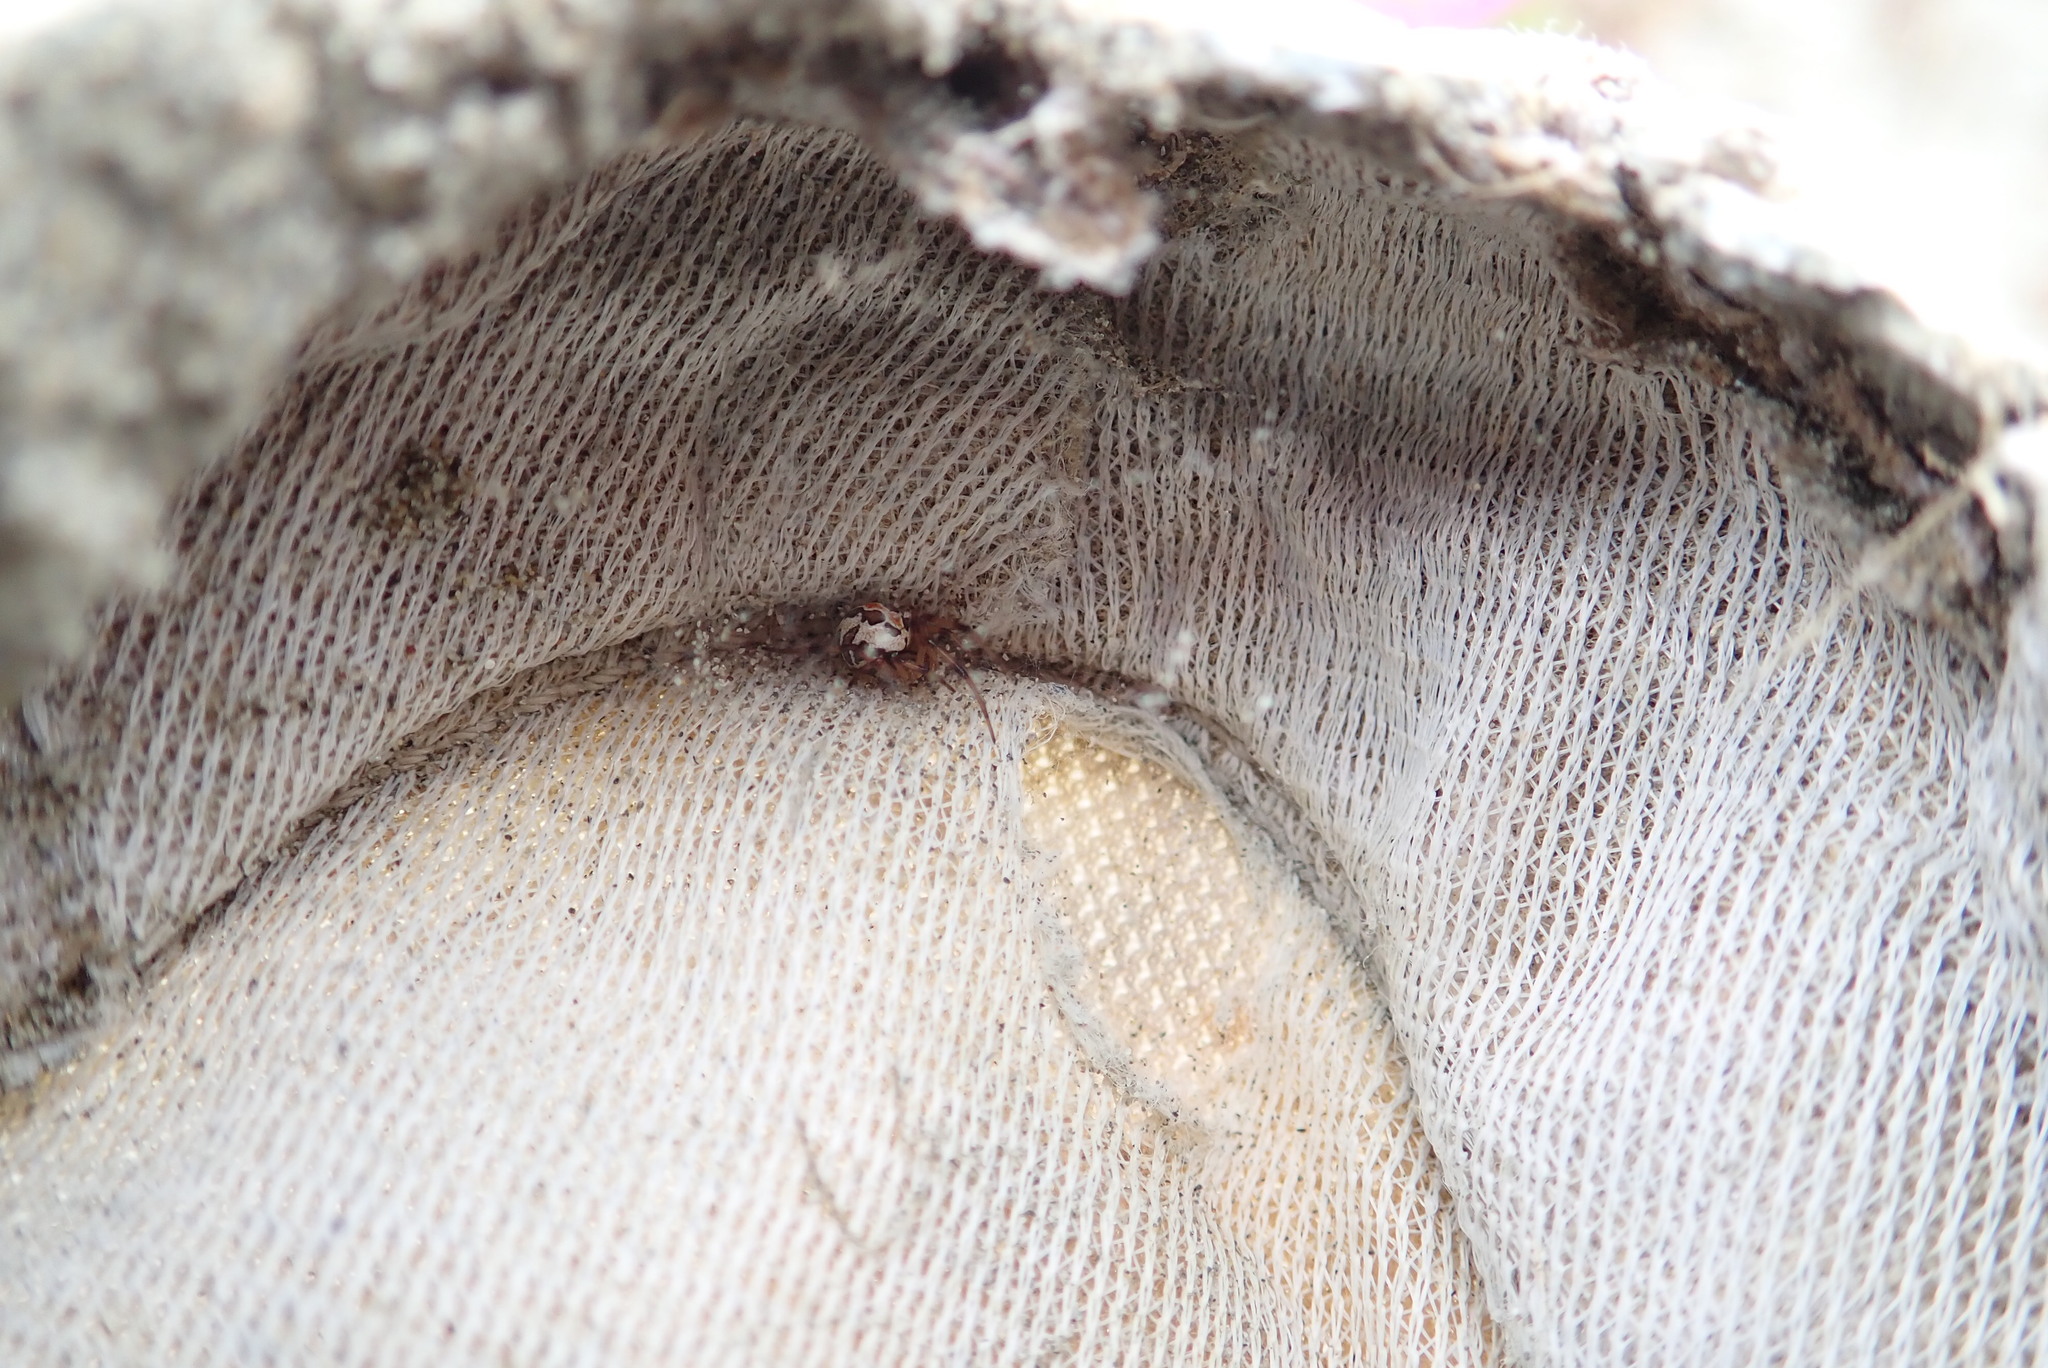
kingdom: Animalia
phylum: Arthropoda
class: Arachnida
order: Araneae
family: Theridiidae
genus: Latrodectus
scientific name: Latrodectus katipo
